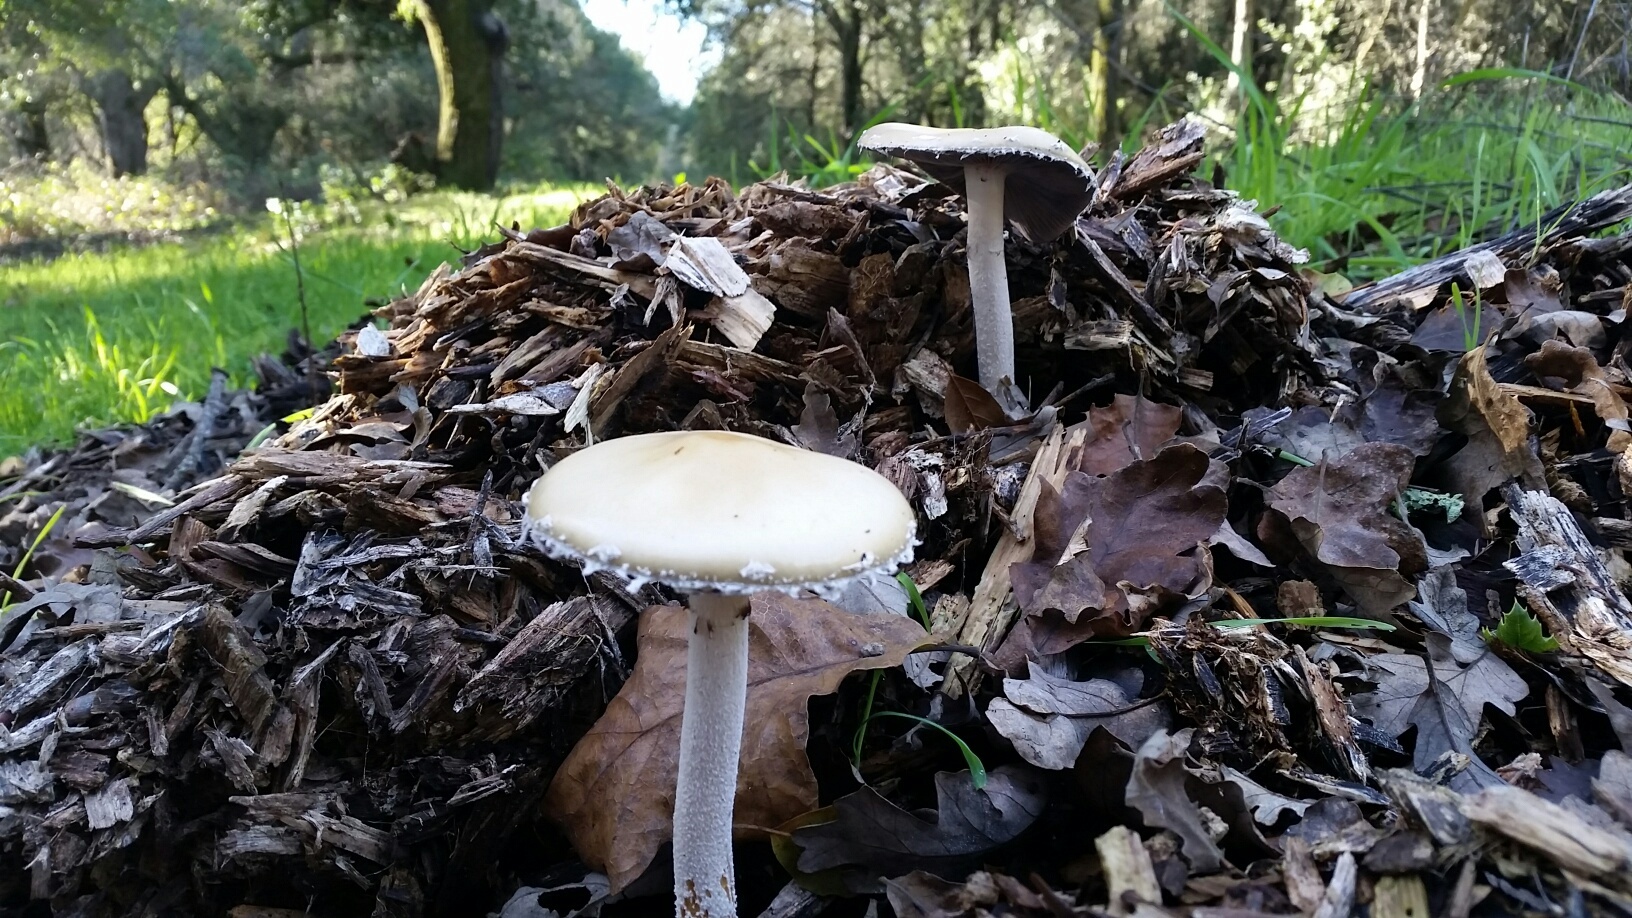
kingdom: Fungi
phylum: Basidiomycota
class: Agaricomycetes
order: Agaricales
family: Strophariaceae
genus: Stropharia
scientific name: Stropharia ambigua
